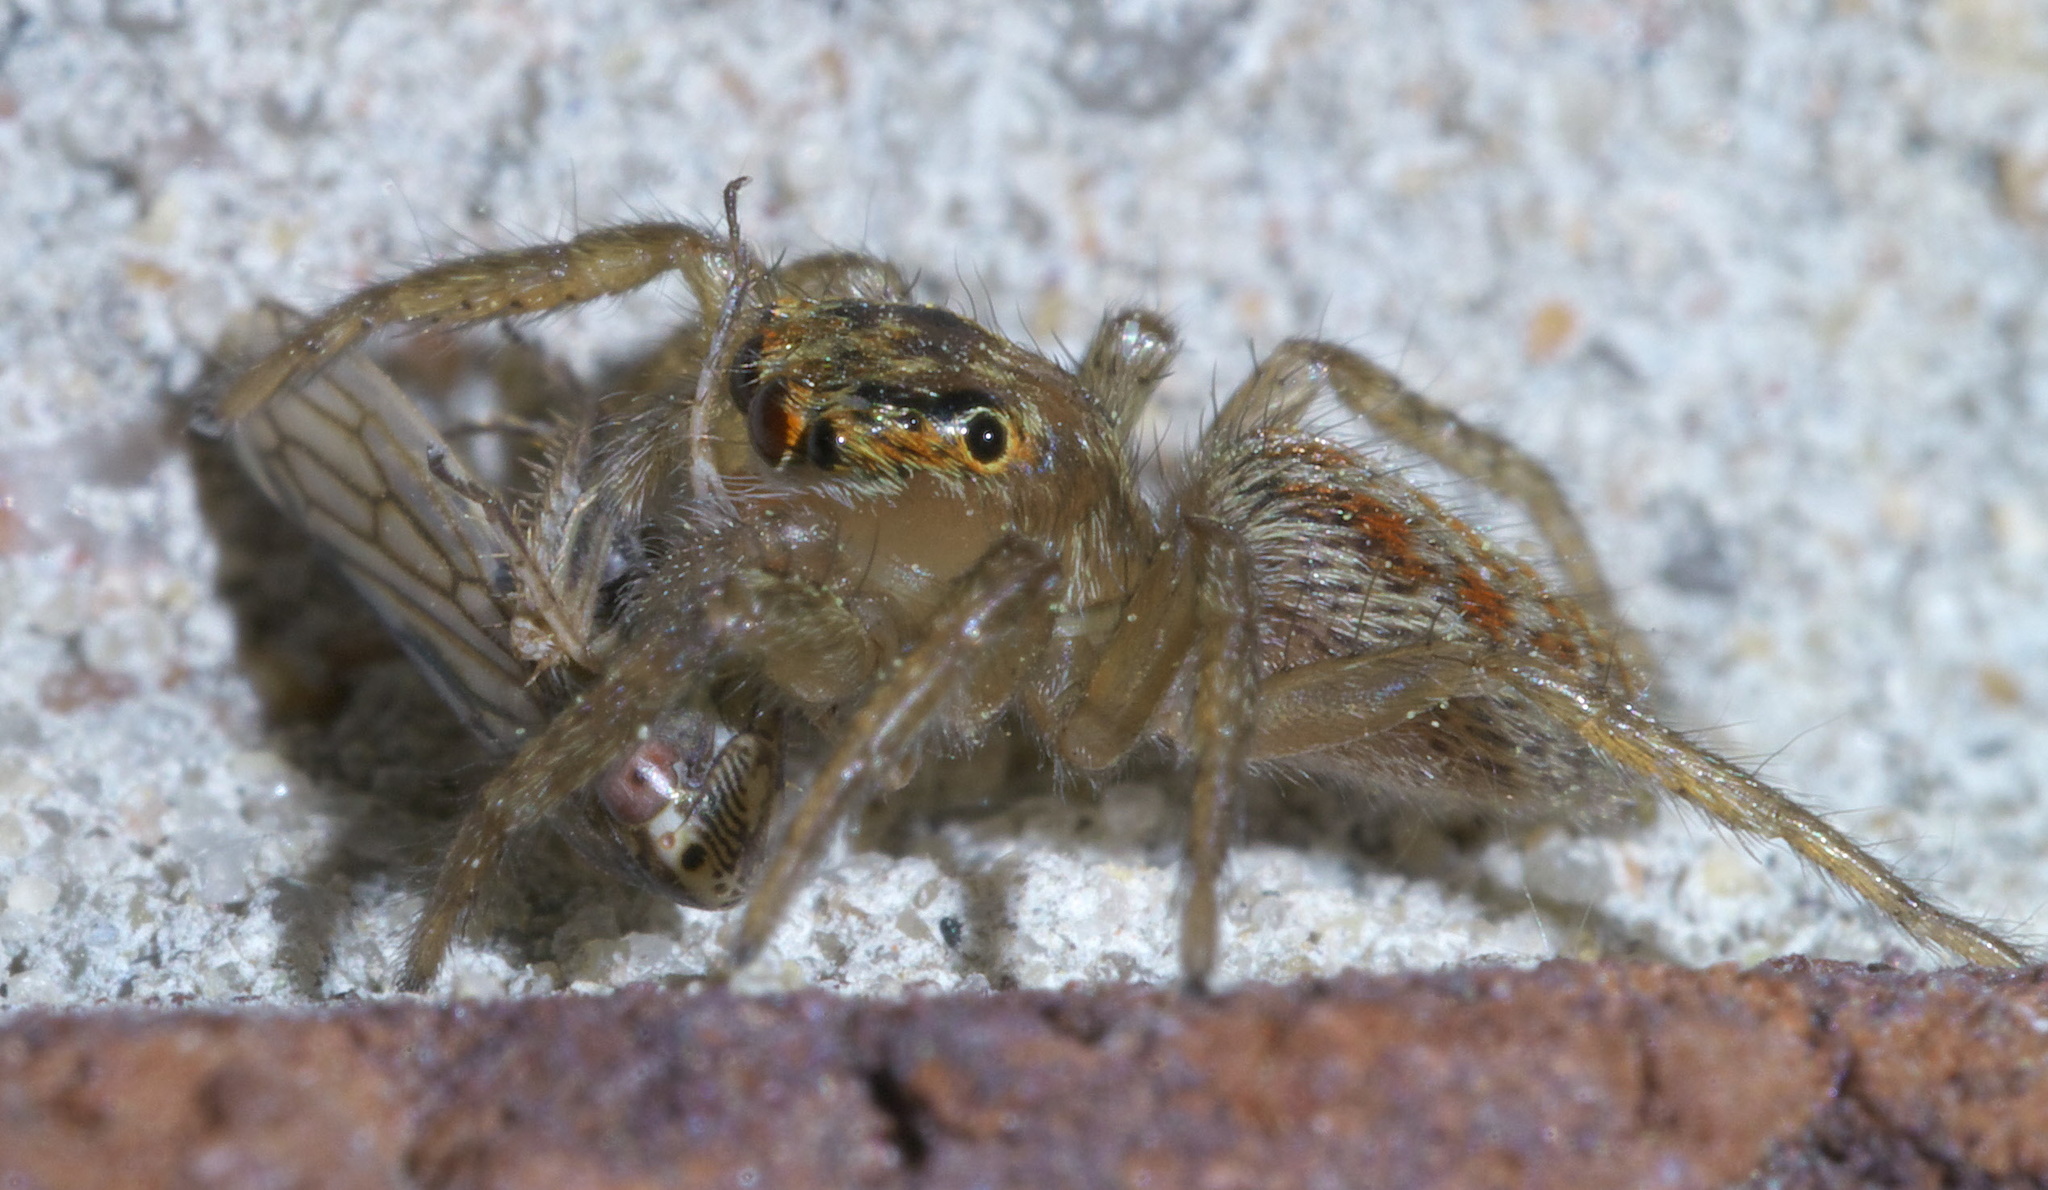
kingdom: Animalia
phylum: Arthropoda
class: Arachnida
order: Araneae
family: Salticidae
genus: Maevia
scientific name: Maevia inclemens
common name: Dimorphic jumper
